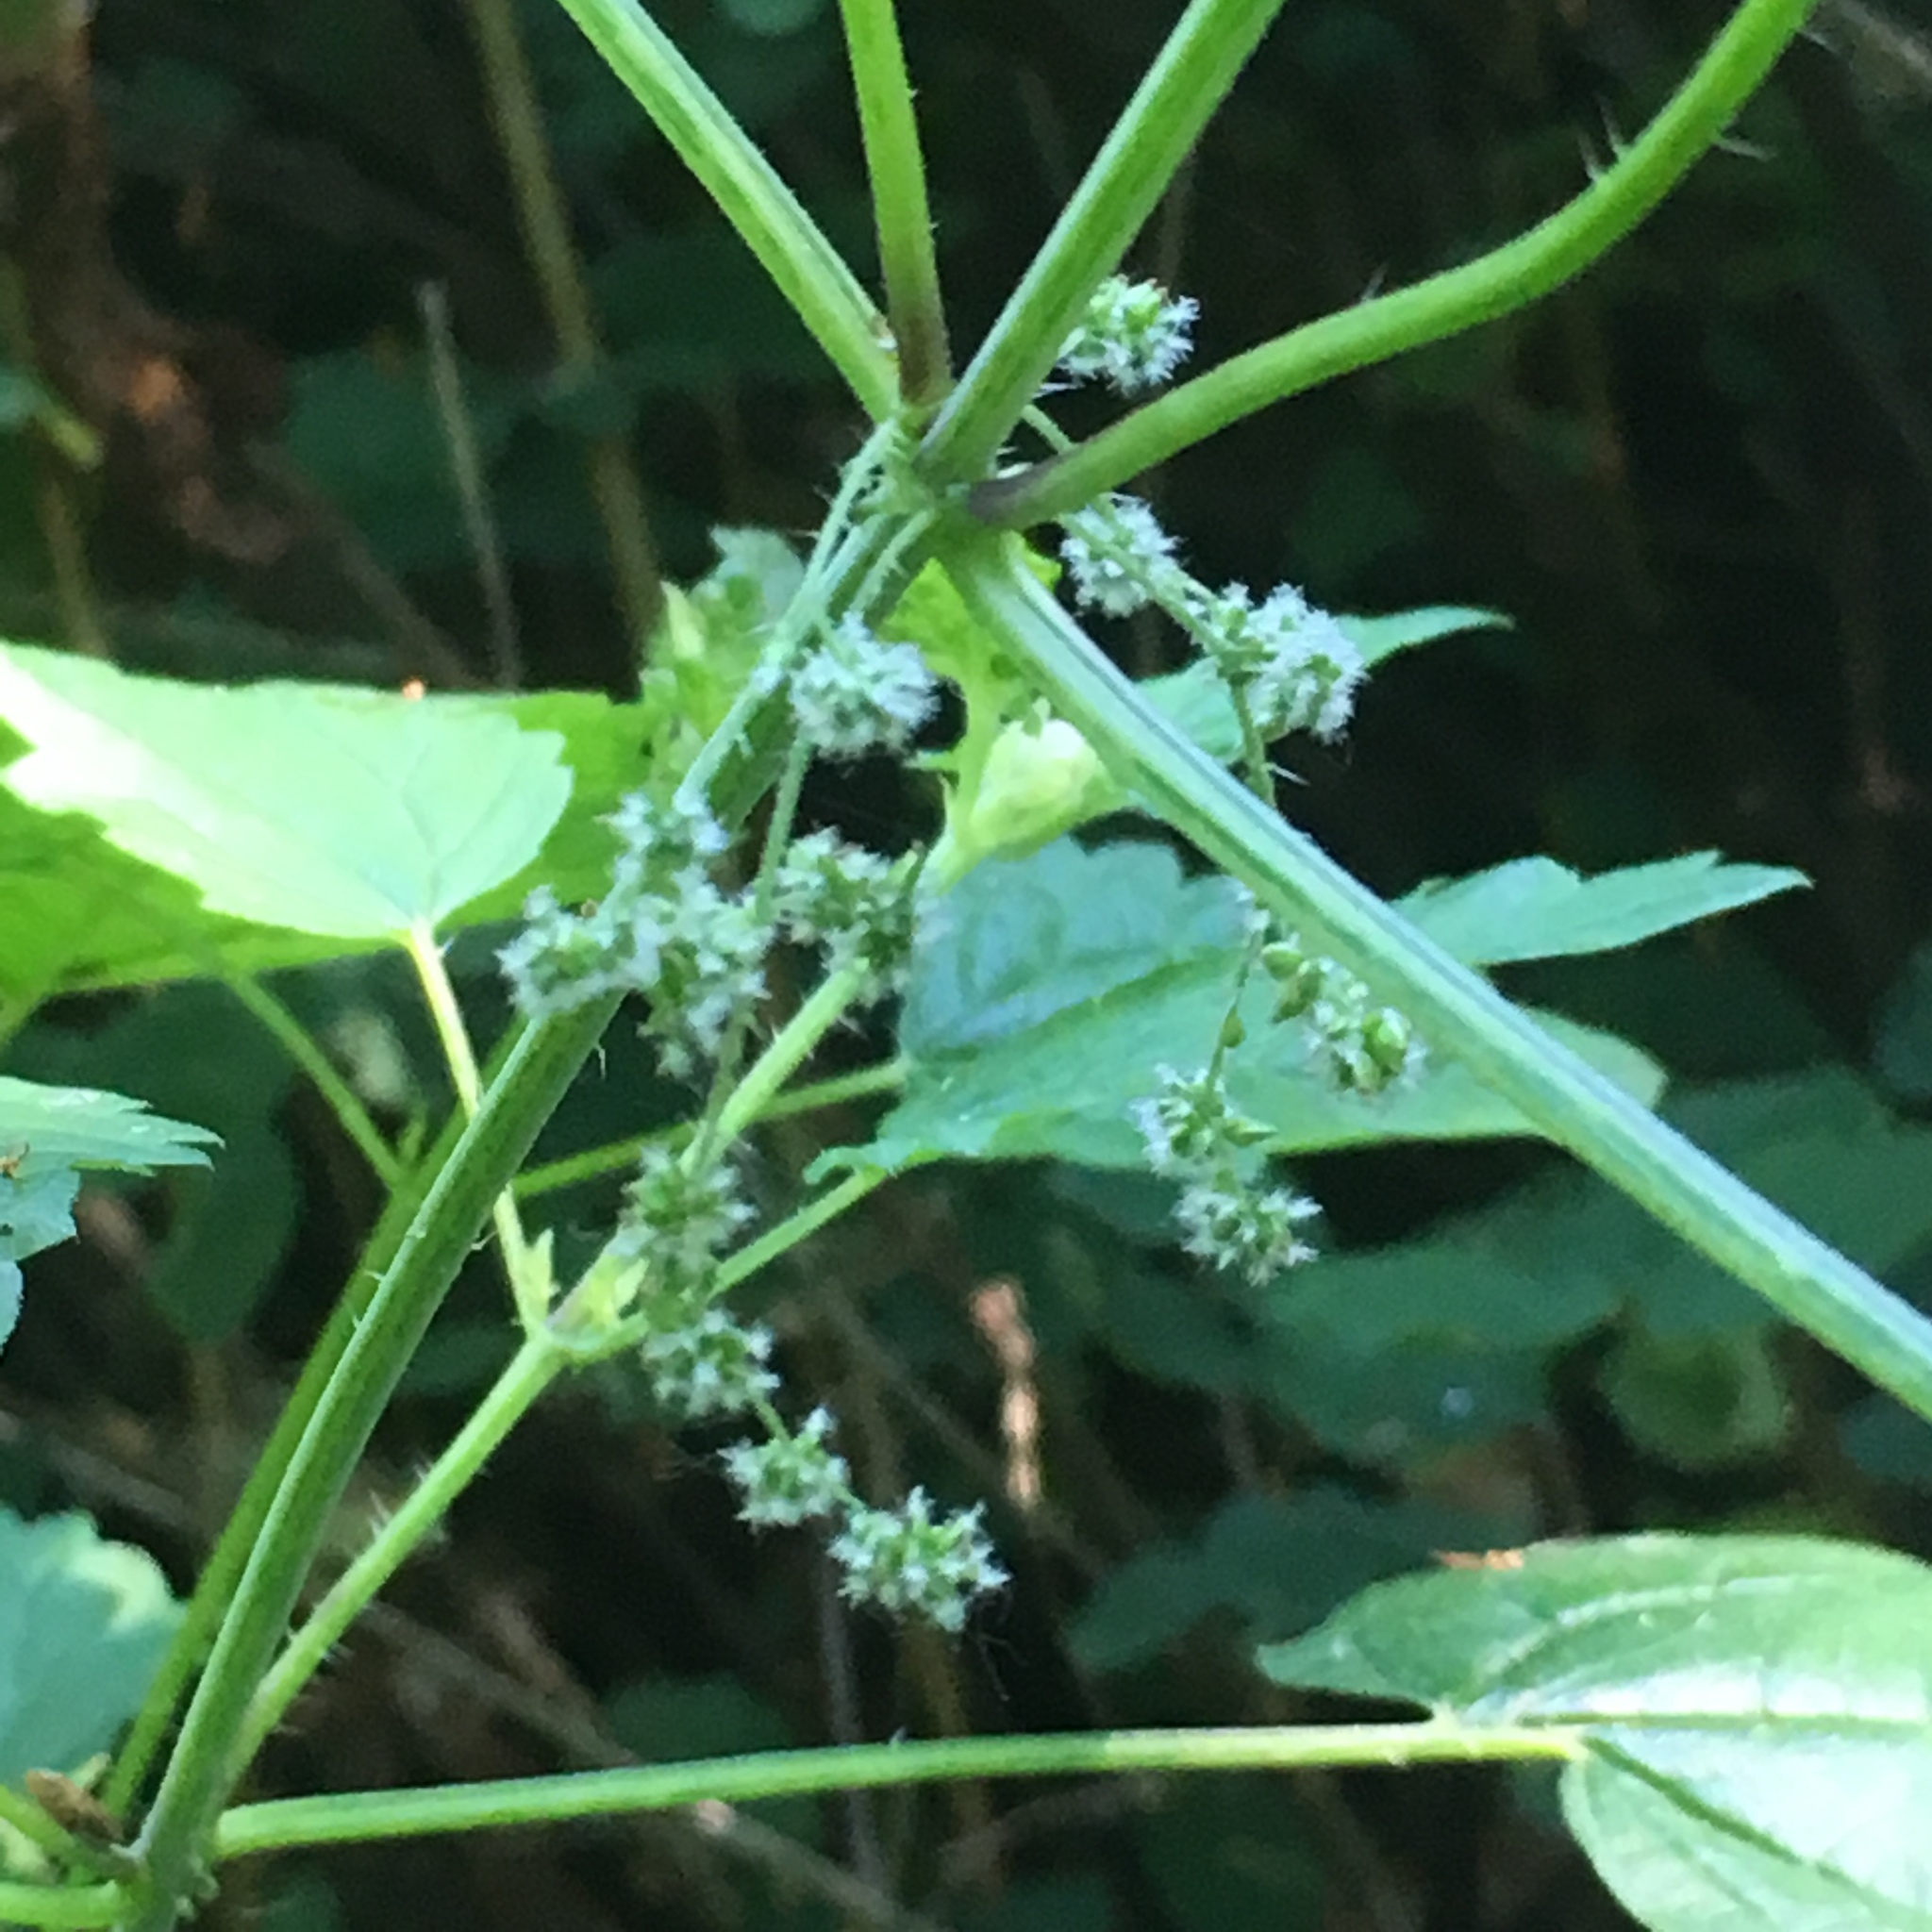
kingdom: Plantae
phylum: Tracheophyta
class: Magnoliopsida
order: Rosales
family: Urticaceae
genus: Urtica
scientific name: Urtica gracilis
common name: Slender stinging nettle
